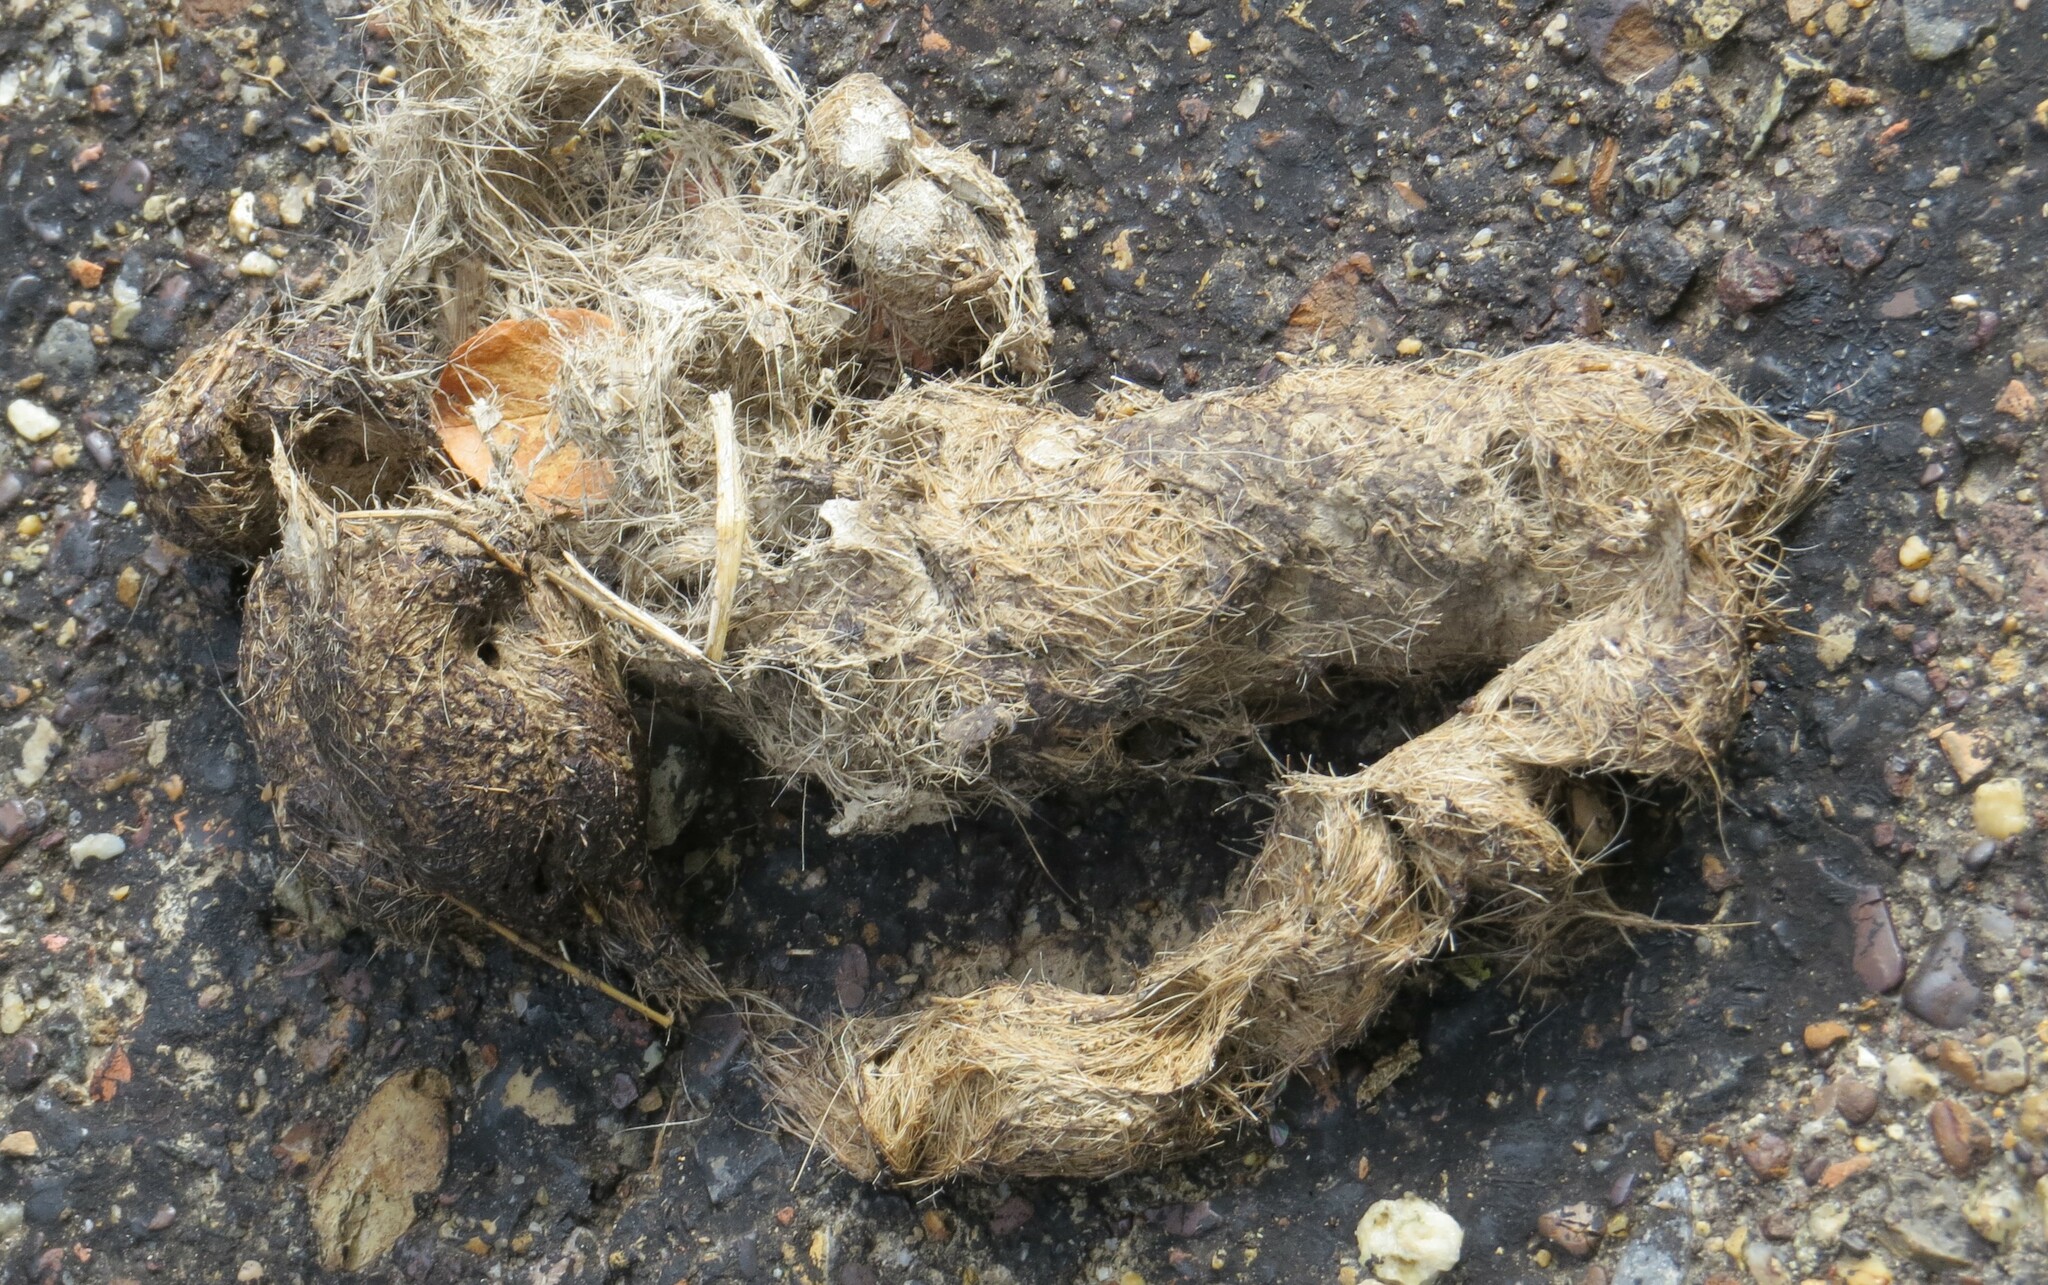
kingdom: Animalia
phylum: Chordata
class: Mammalia
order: Carnivora
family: Canidae
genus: Canis
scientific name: Canis latrans
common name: Coyote
